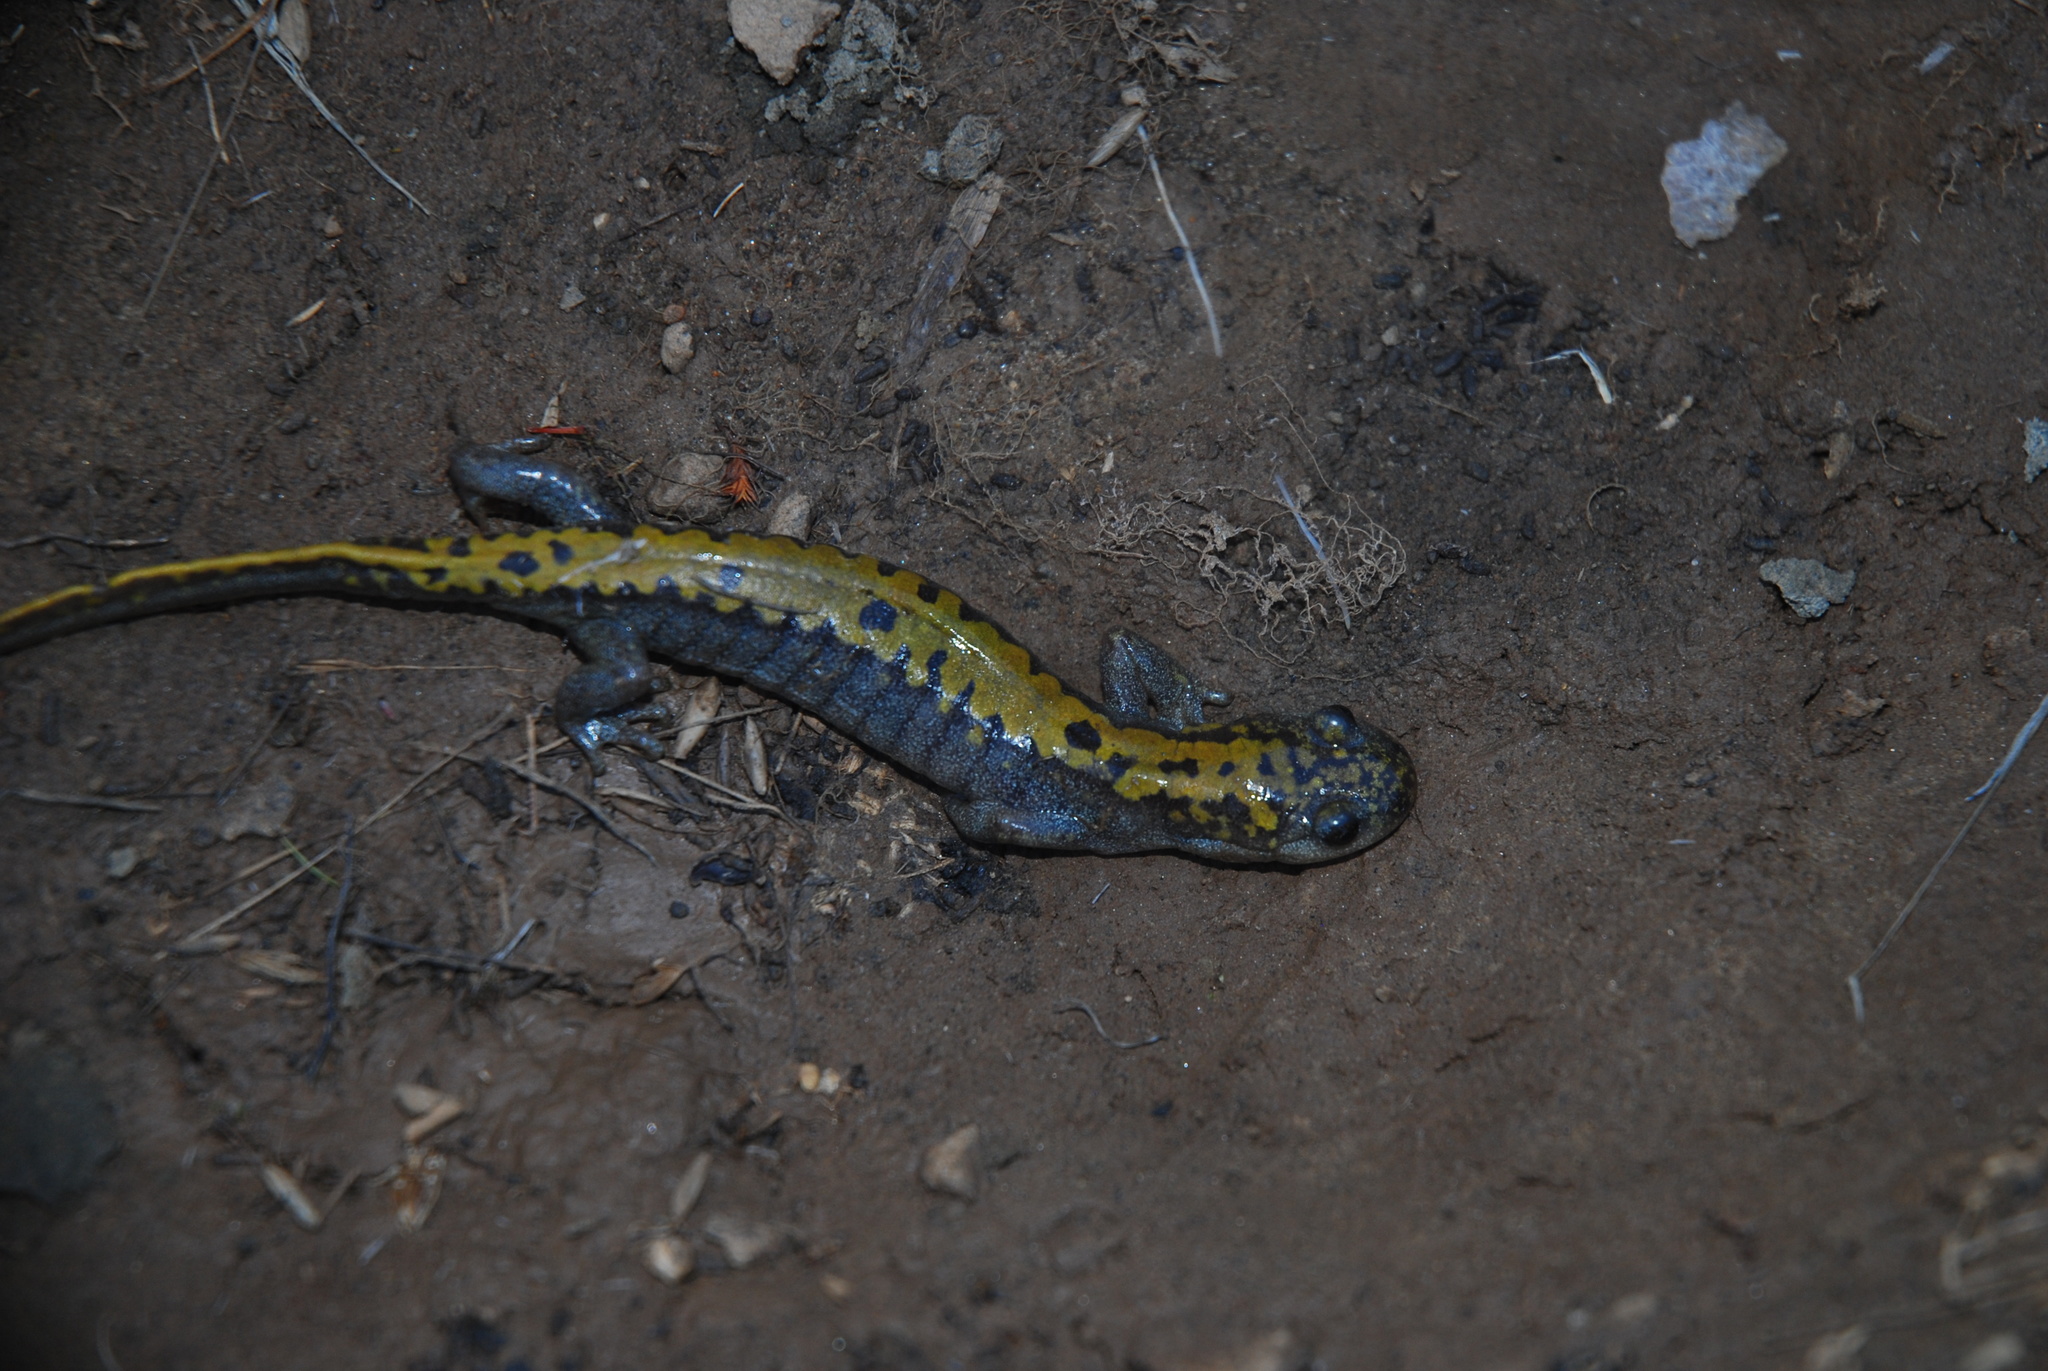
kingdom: Animalia
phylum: Chordata
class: Amphibia
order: Caudata
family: Ambystomatidae
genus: Ambystoma
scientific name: Ambystoma macrodactylum
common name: Long-toed salamander
